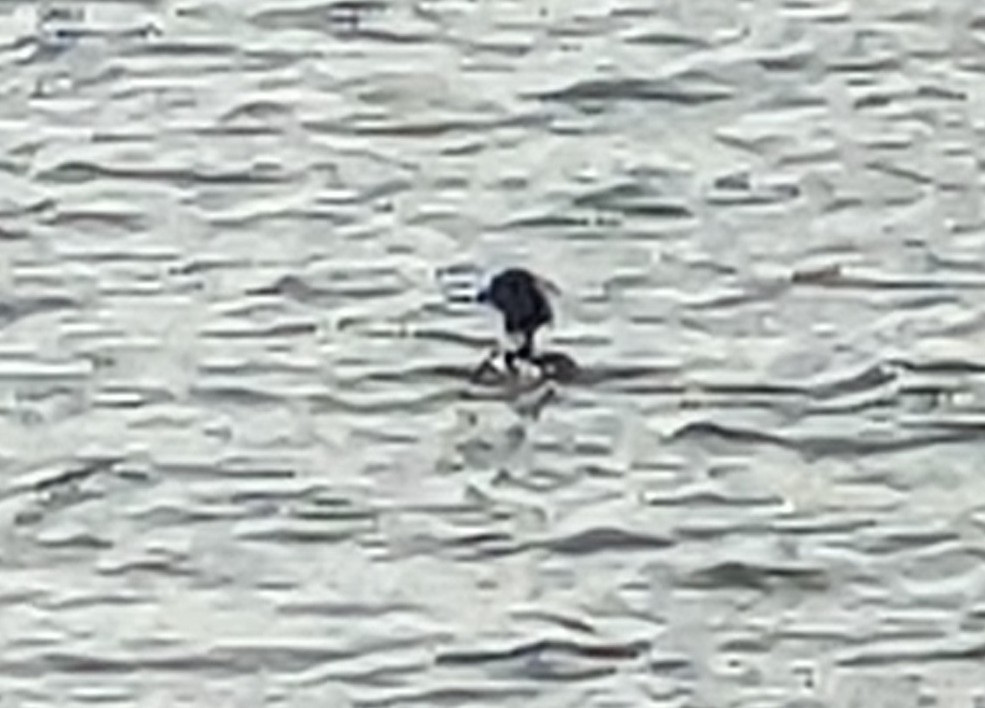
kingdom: Animalia
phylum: Chordata
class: Aves
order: Anseriformes
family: Anatidae
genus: Mergus
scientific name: Mergus serrator
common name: Red-breasted merganser
